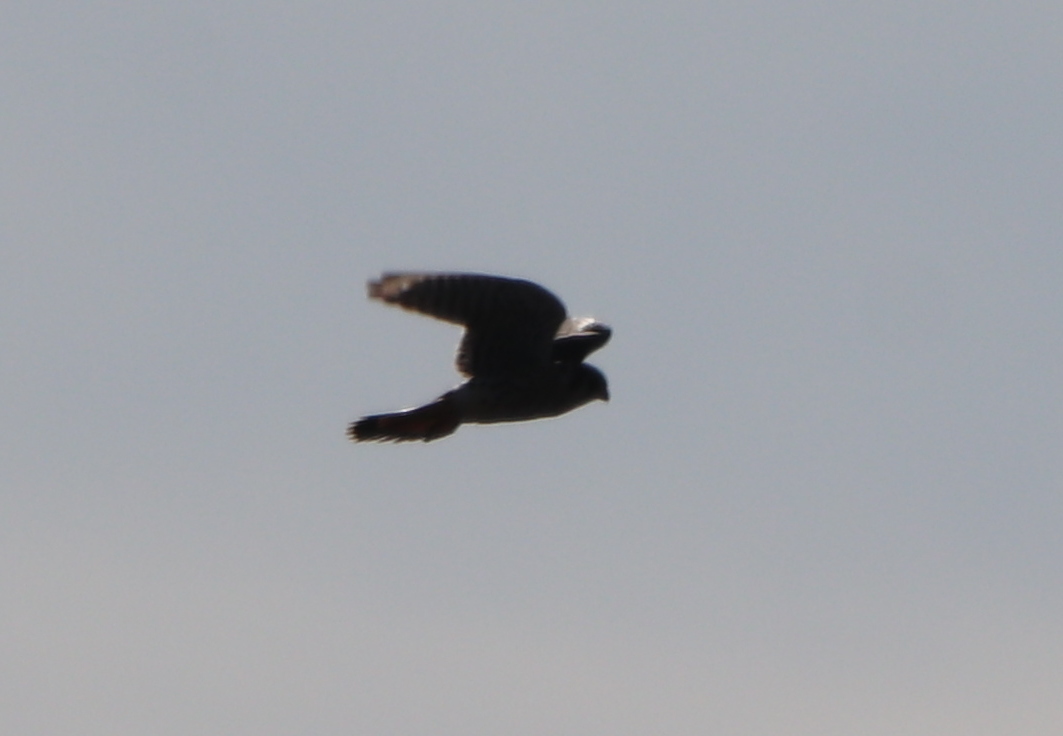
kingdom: Animalia
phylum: Chordata
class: Aves
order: Falconiformes
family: Falconidae
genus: Falco
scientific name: Falco sparverius
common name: American kestrel
